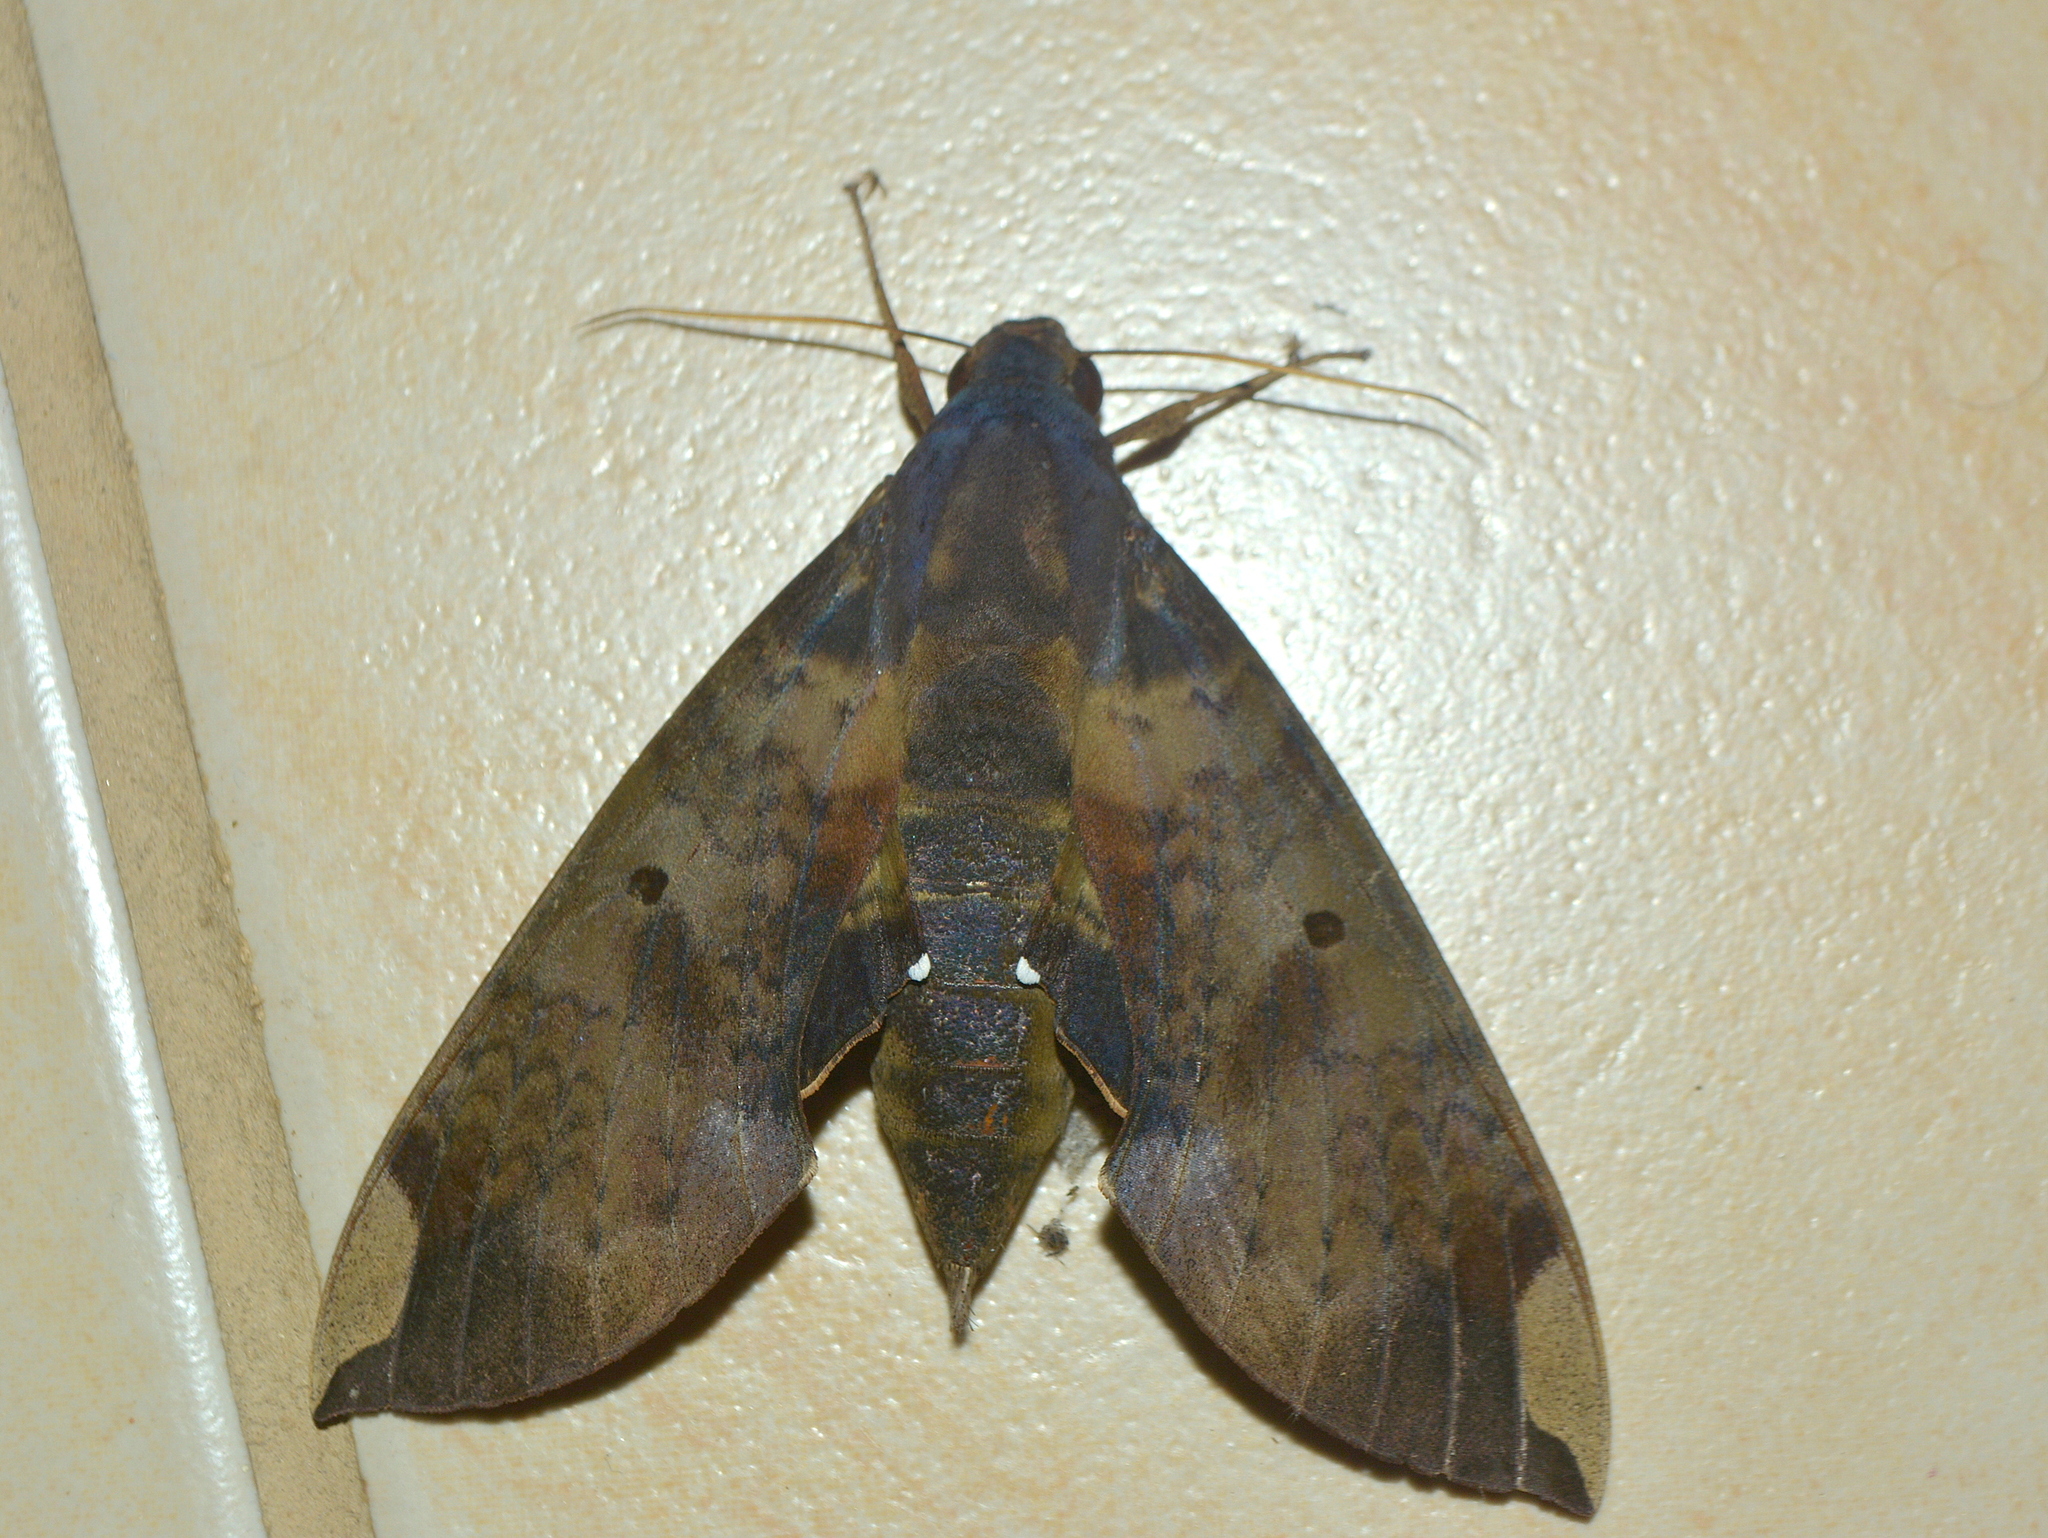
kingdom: Animalia
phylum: Arthropoda
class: Insecta
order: Lepidoptera
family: Sphingidae
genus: Pachylia
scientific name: Pachylia ficus
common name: Fig sphinx
